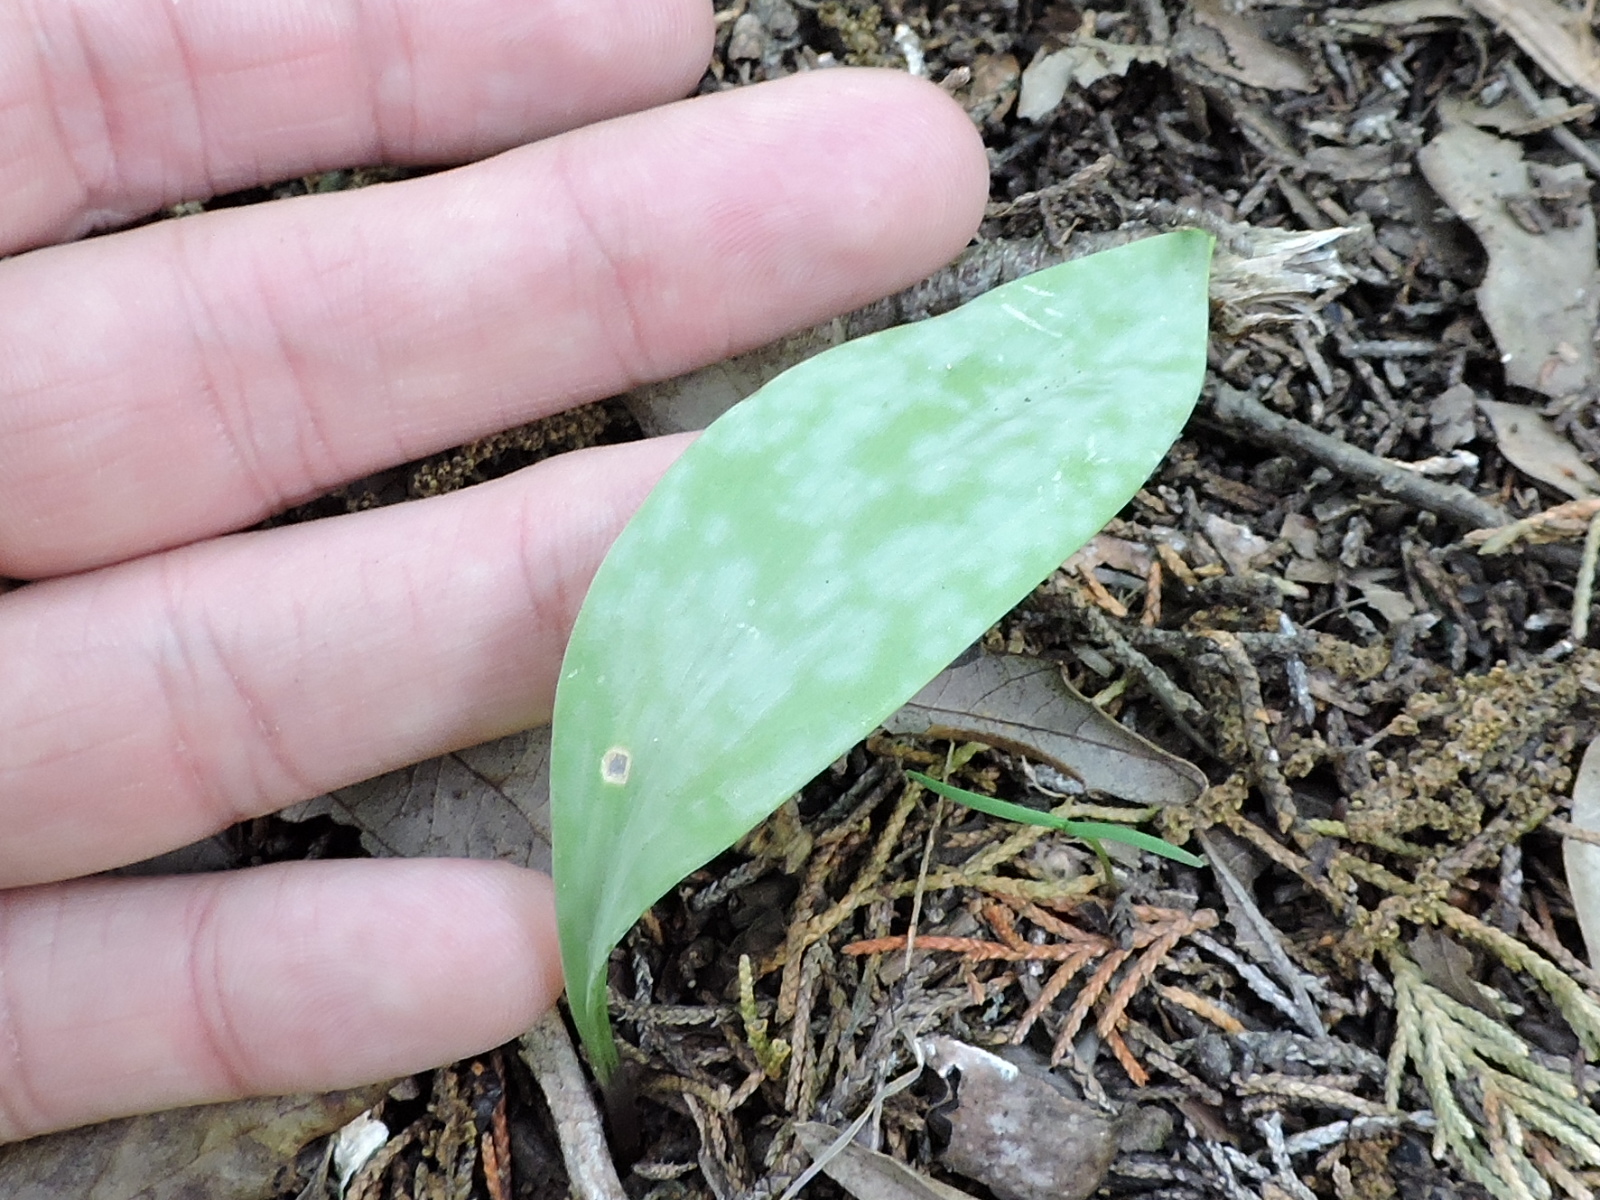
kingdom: Plantae
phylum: Tracheophyta
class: Liliopsida
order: Liliales
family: Liliaceae
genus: Erythronium
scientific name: Erythronium albidum
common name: White trout-lily
